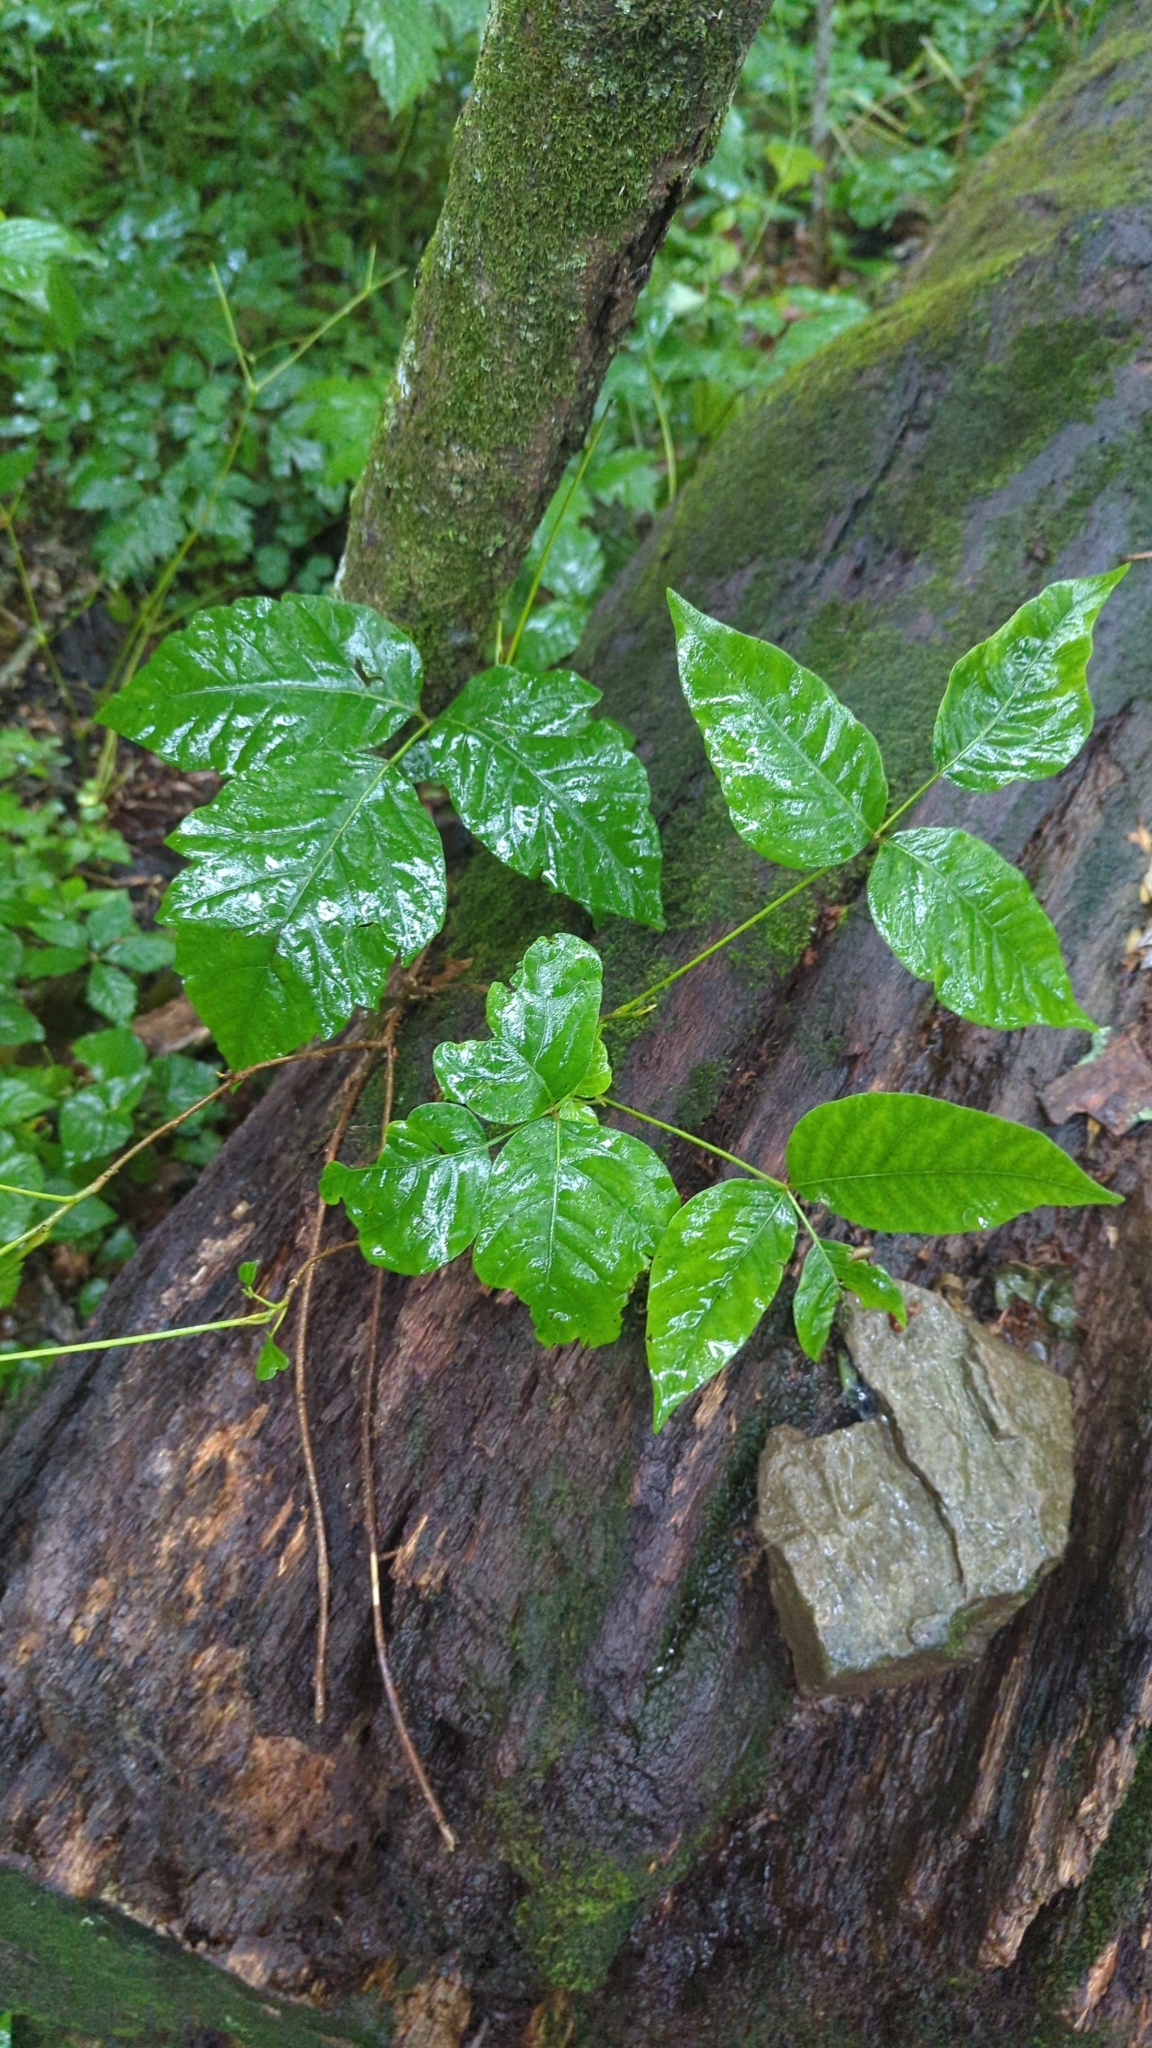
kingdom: Plantae
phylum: Tracheophyta
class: Magnoliopsida
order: Sapindales
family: Anacardiaceae
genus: Toxicodendron
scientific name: Toxicodendron radicans
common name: Poison ivy
